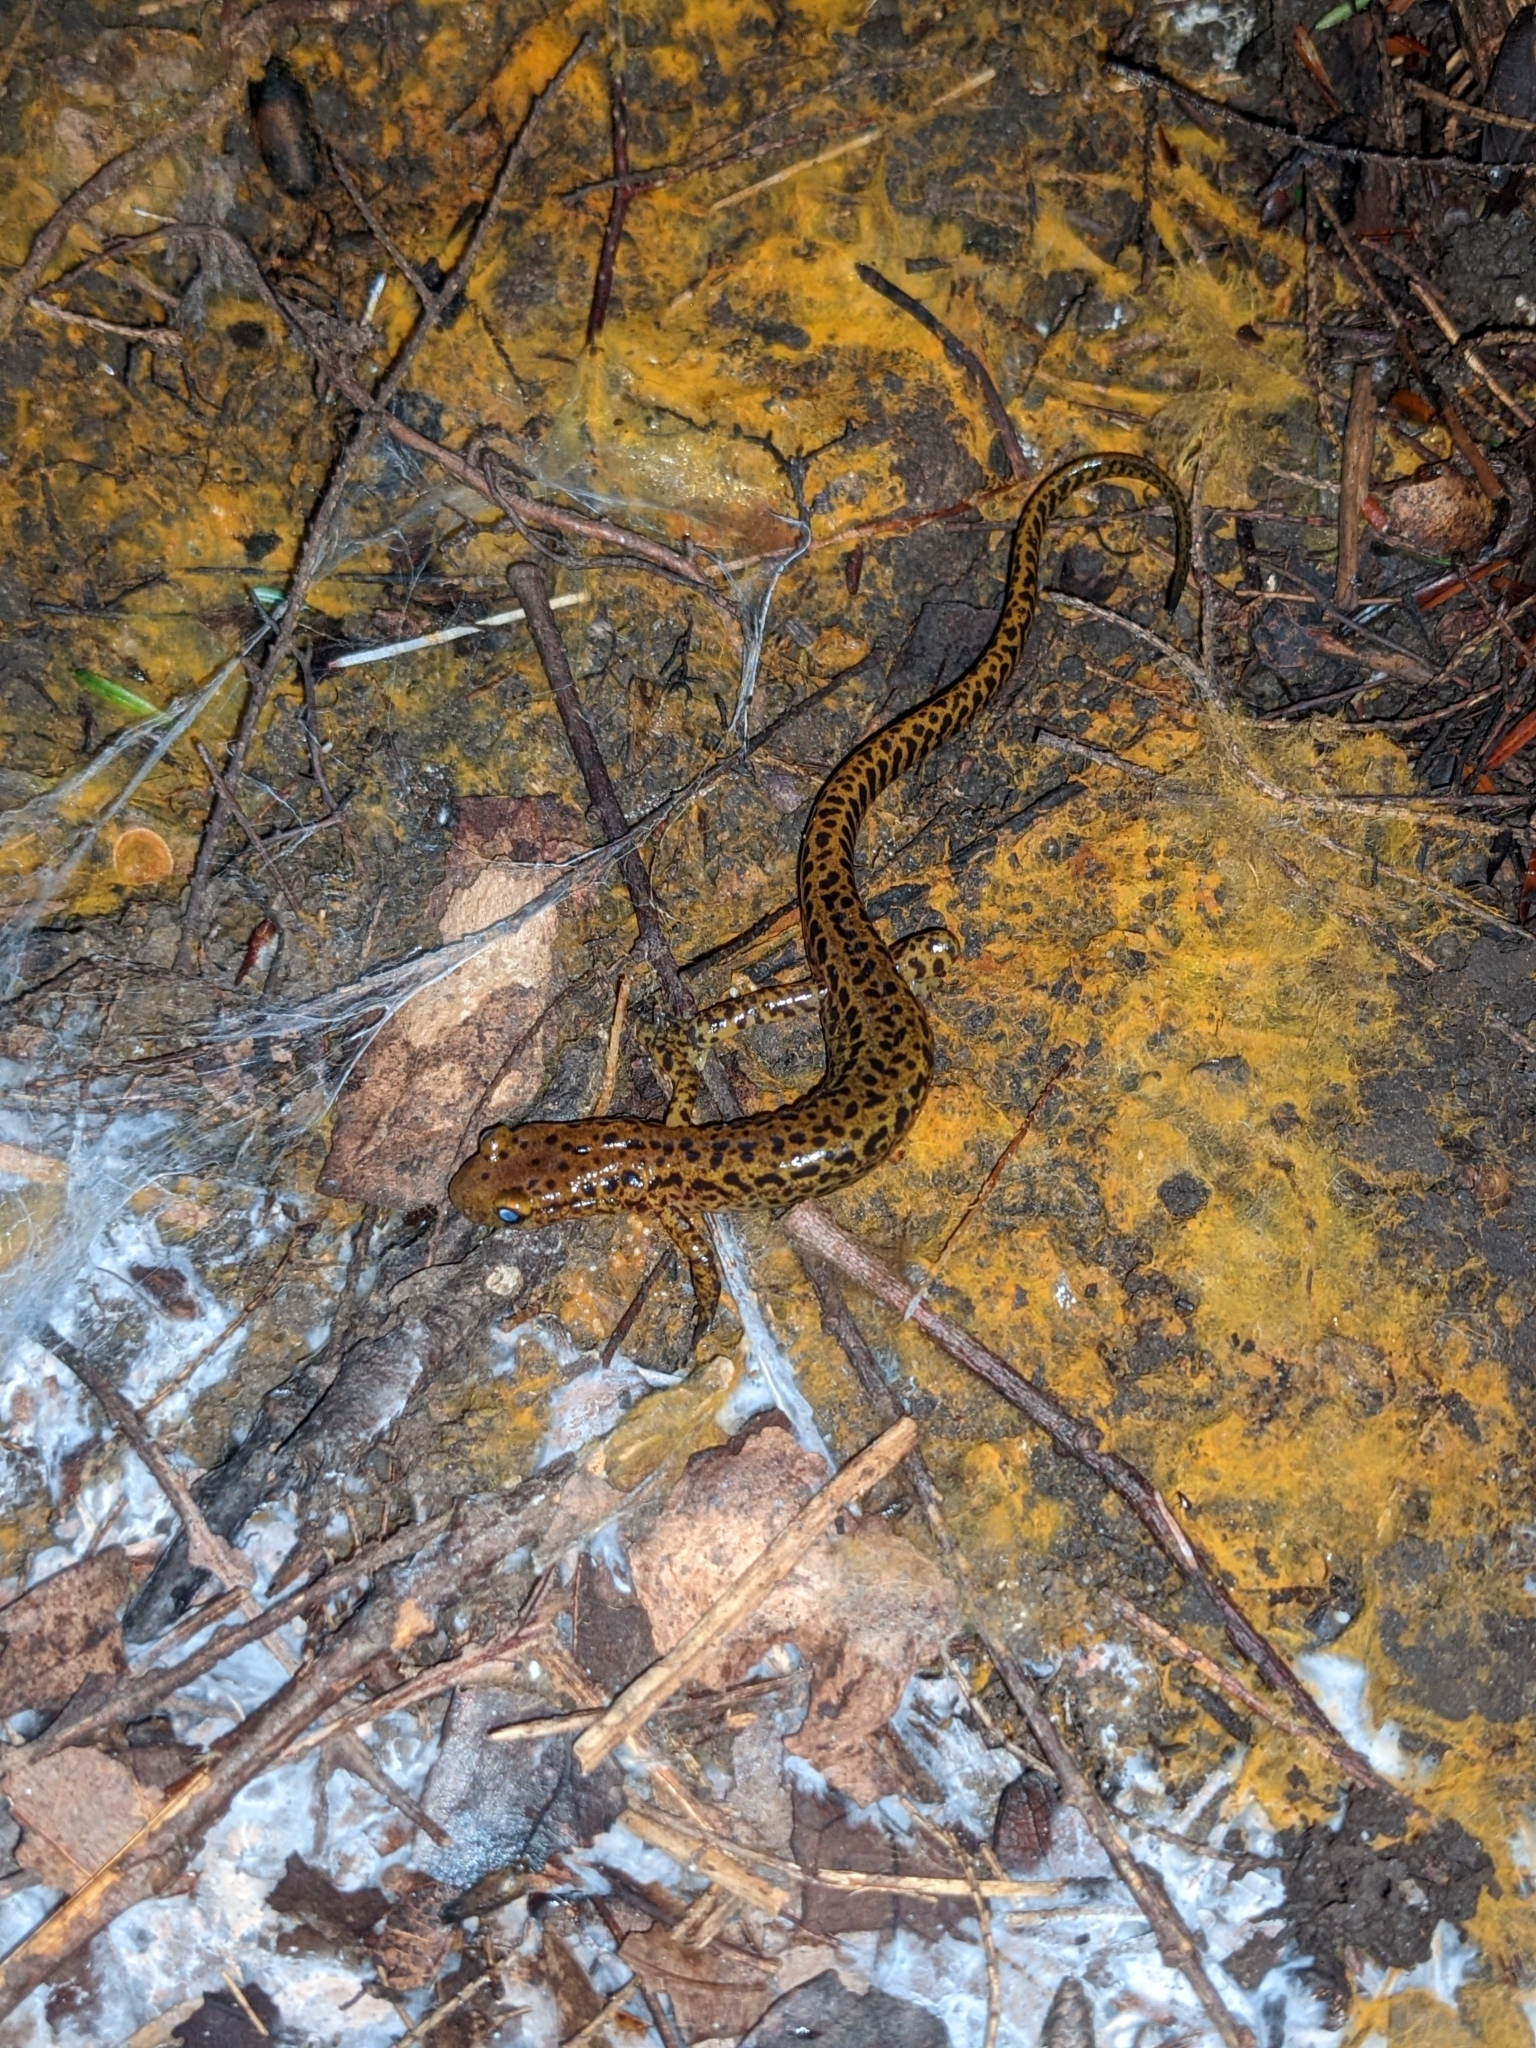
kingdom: Animalia
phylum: Chordata
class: Amphibia
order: Caudata
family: Plethodontidae
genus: Eurycea
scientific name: Eurycea longicauda
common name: Long-tailed salamander
